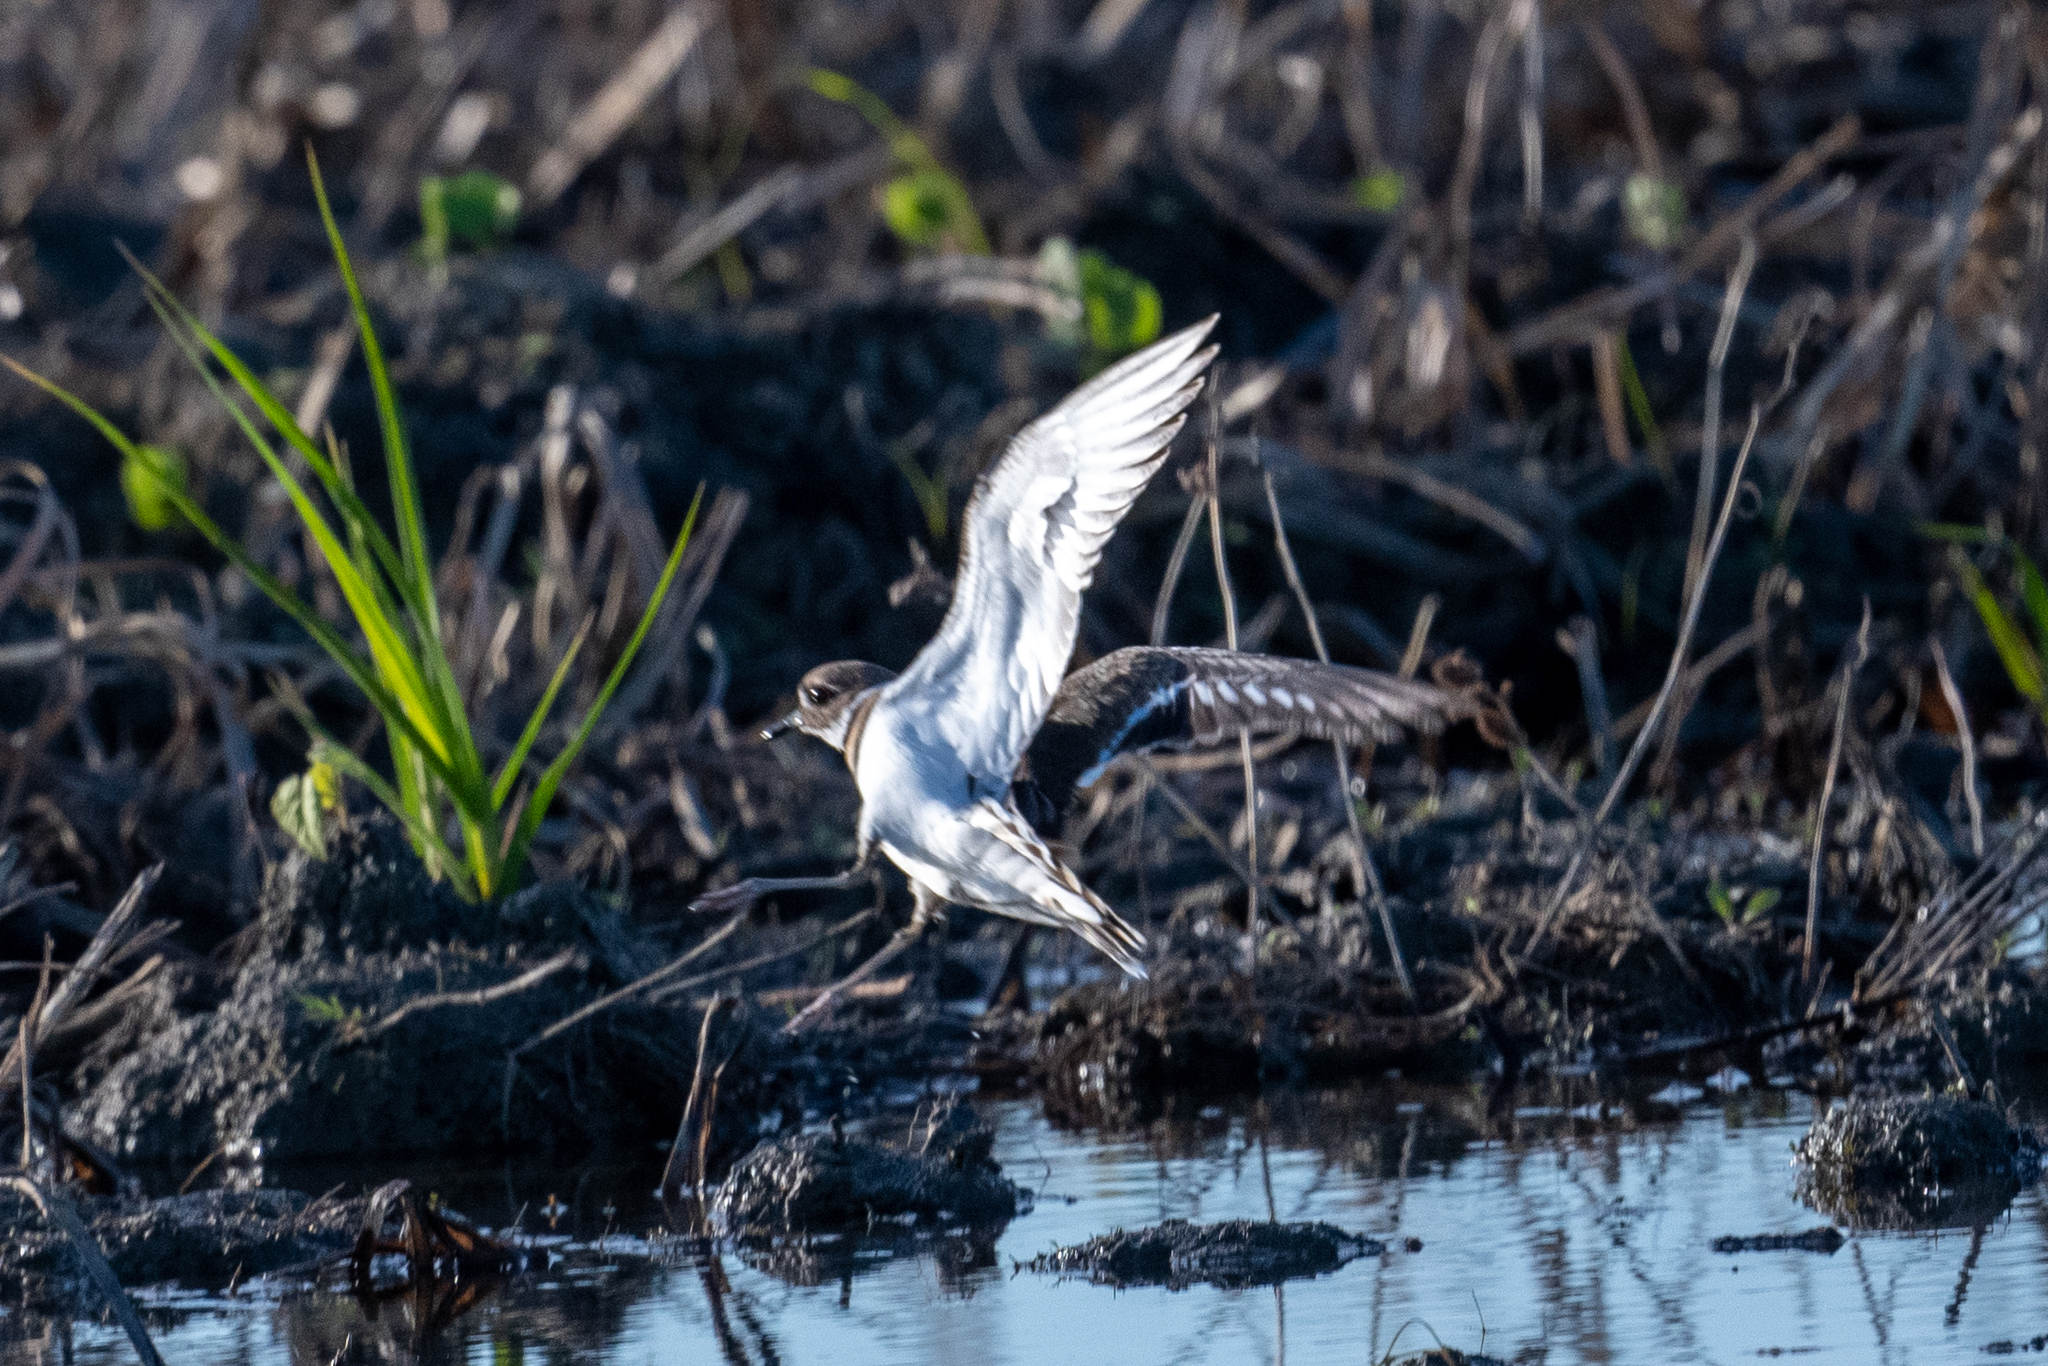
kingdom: Animalia
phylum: Chordata
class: Aves
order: Charadriiformes
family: Charadriidae
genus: Charadrius
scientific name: Charadrius vociferus
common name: Killdeer
